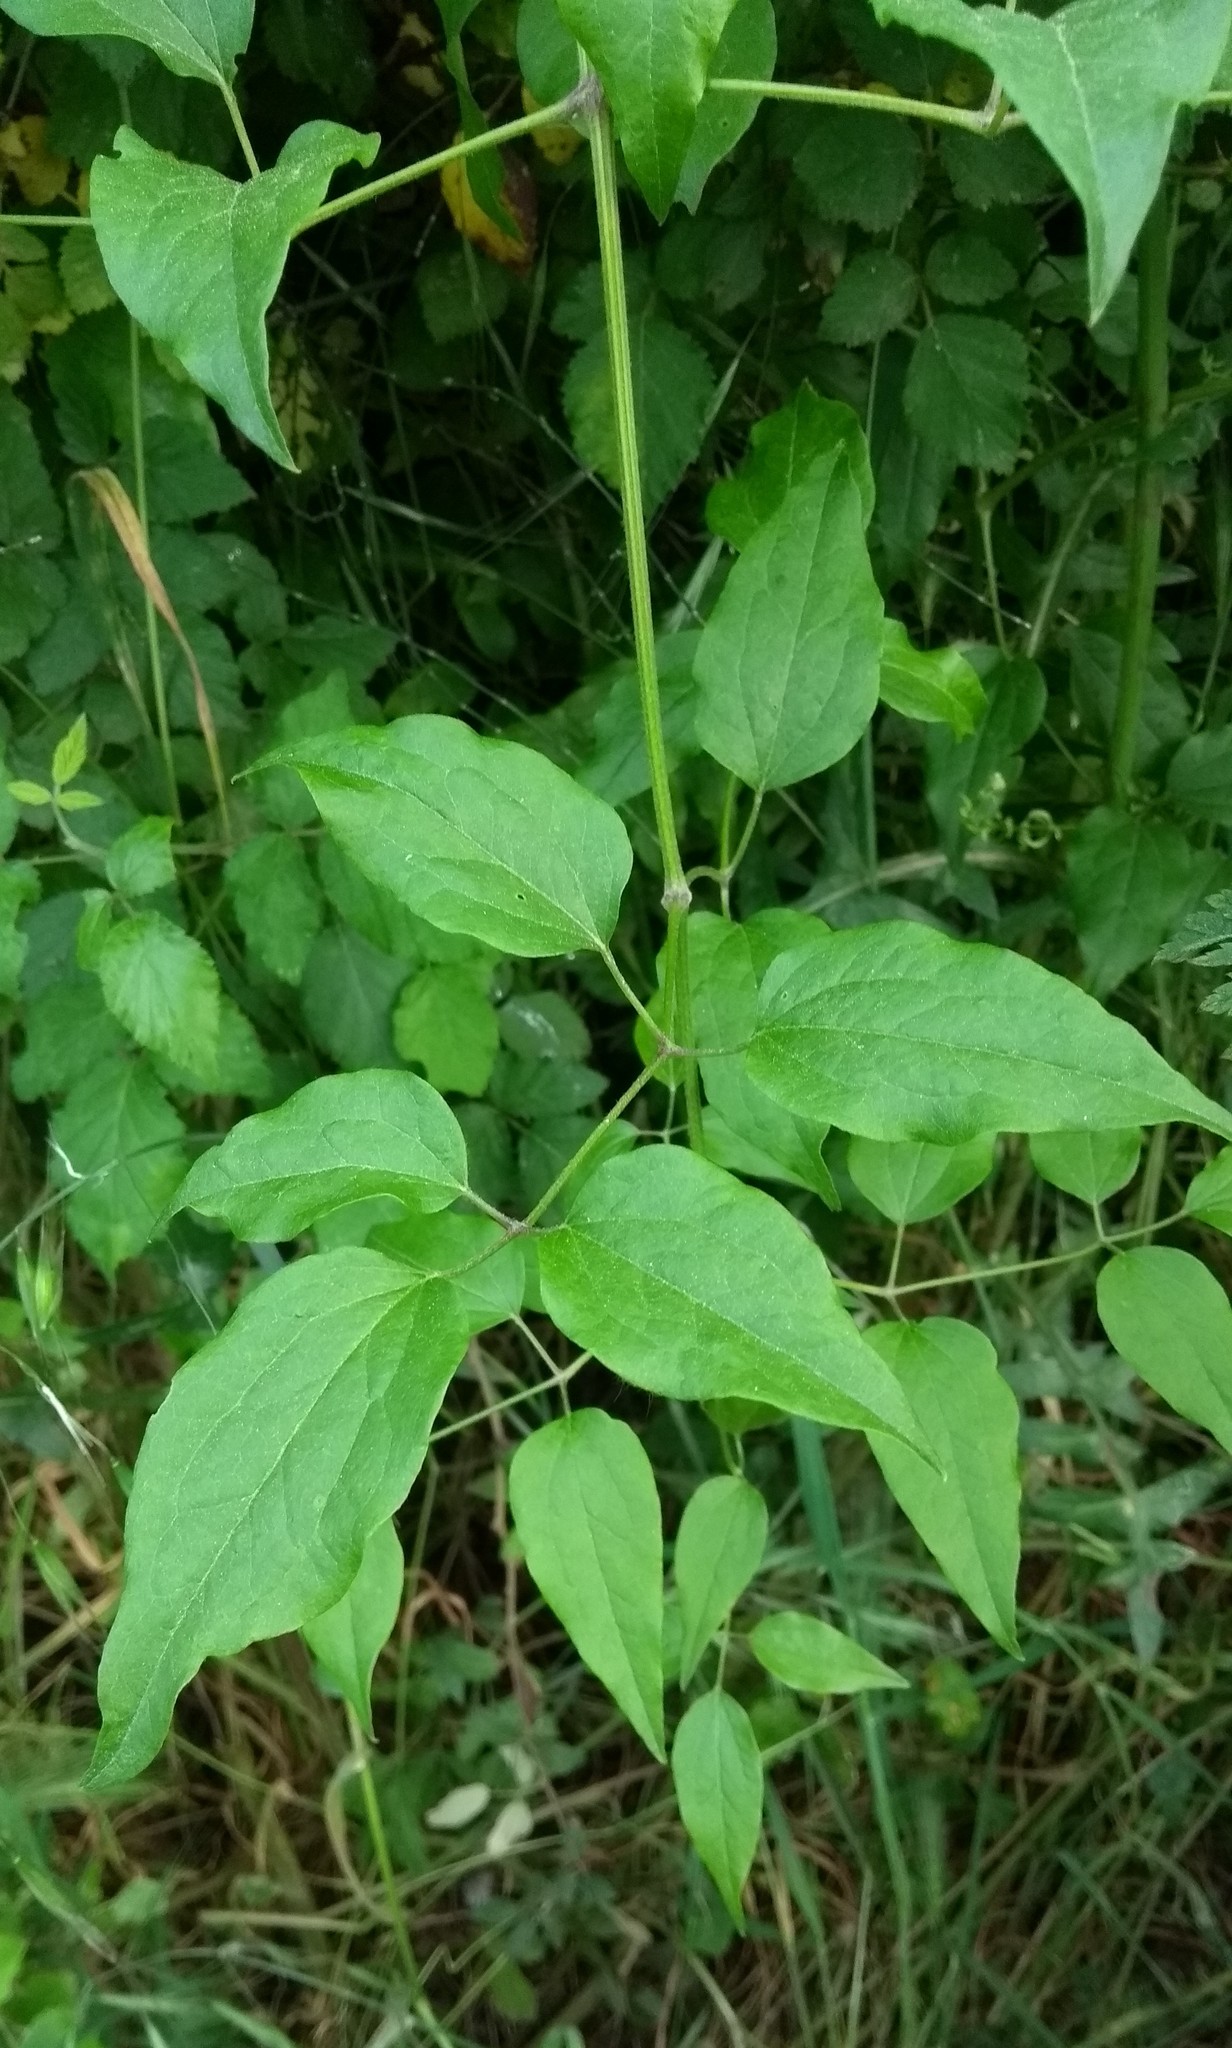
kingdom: Plantae
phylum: Tracheophyta
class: Magnoliopsida
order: Ranunculales
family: Ranunculaceae
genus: Clematis
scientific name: Clematis vitalba
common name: Evergreen clematis
